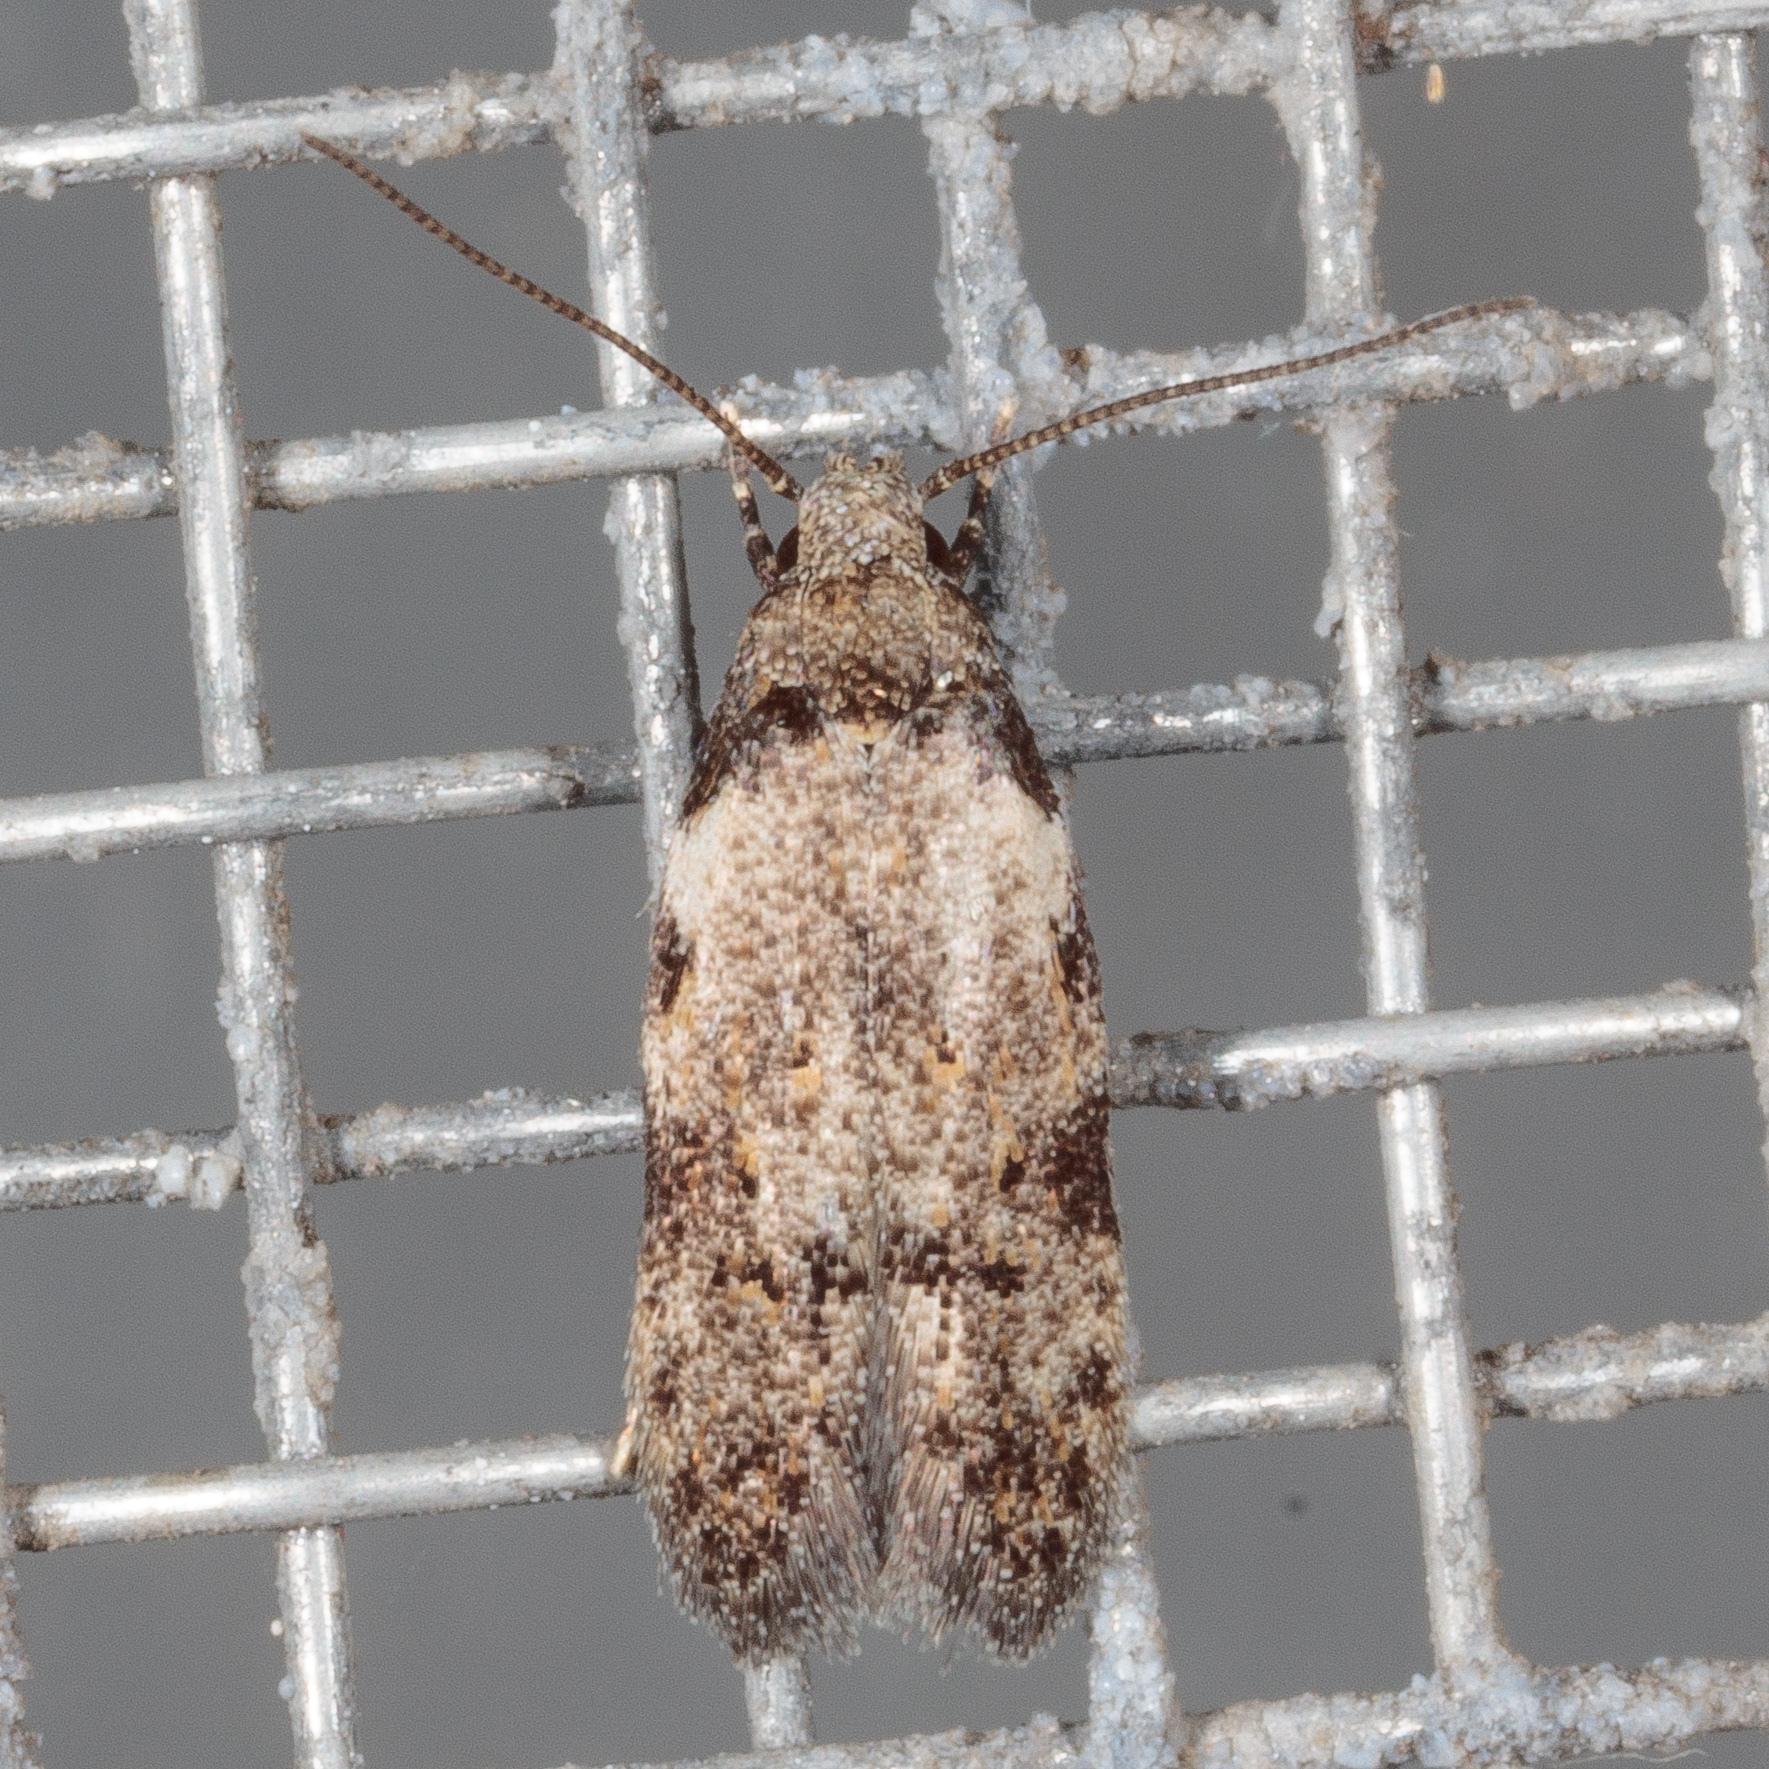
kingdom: Animalia
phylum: Arthropoda
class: Insecta
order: Lepidoptera
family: Autostichidae
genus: Taygete
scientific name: Taygete attributella
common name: Triangle-marked twirler moth
